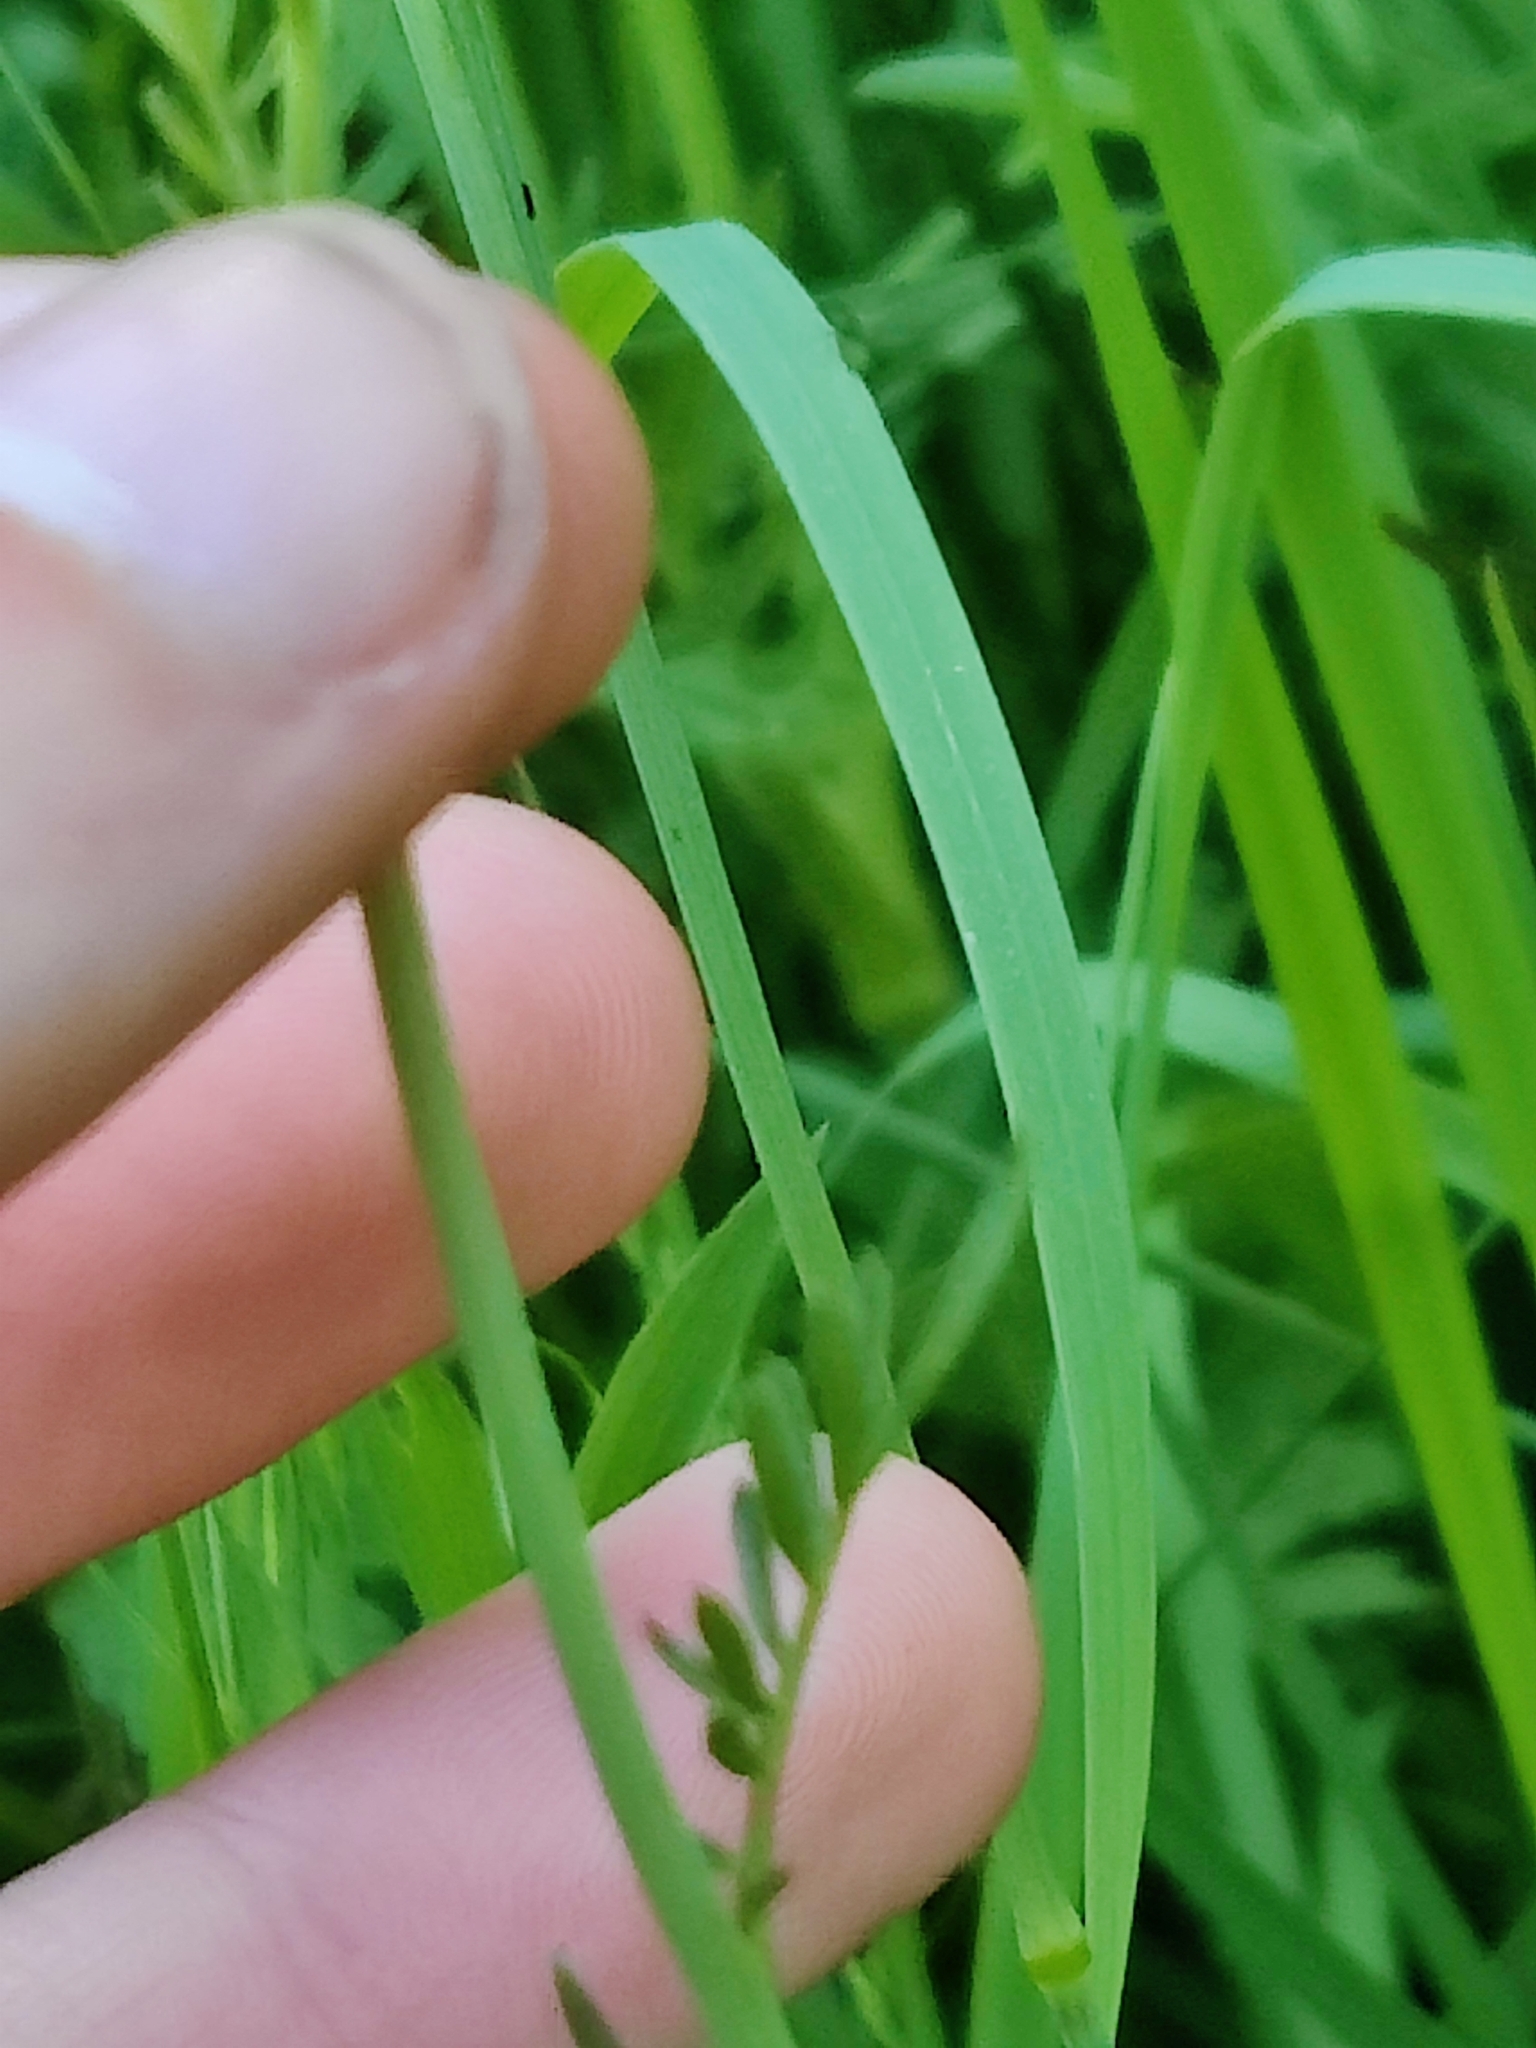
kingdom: Plantae
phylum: Tracheophyta
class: Magnoliopsida
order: Brassicales
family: Brassicaceae
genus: Cardamine
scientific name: Cardamine pratensis
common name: Cuckoo flower
